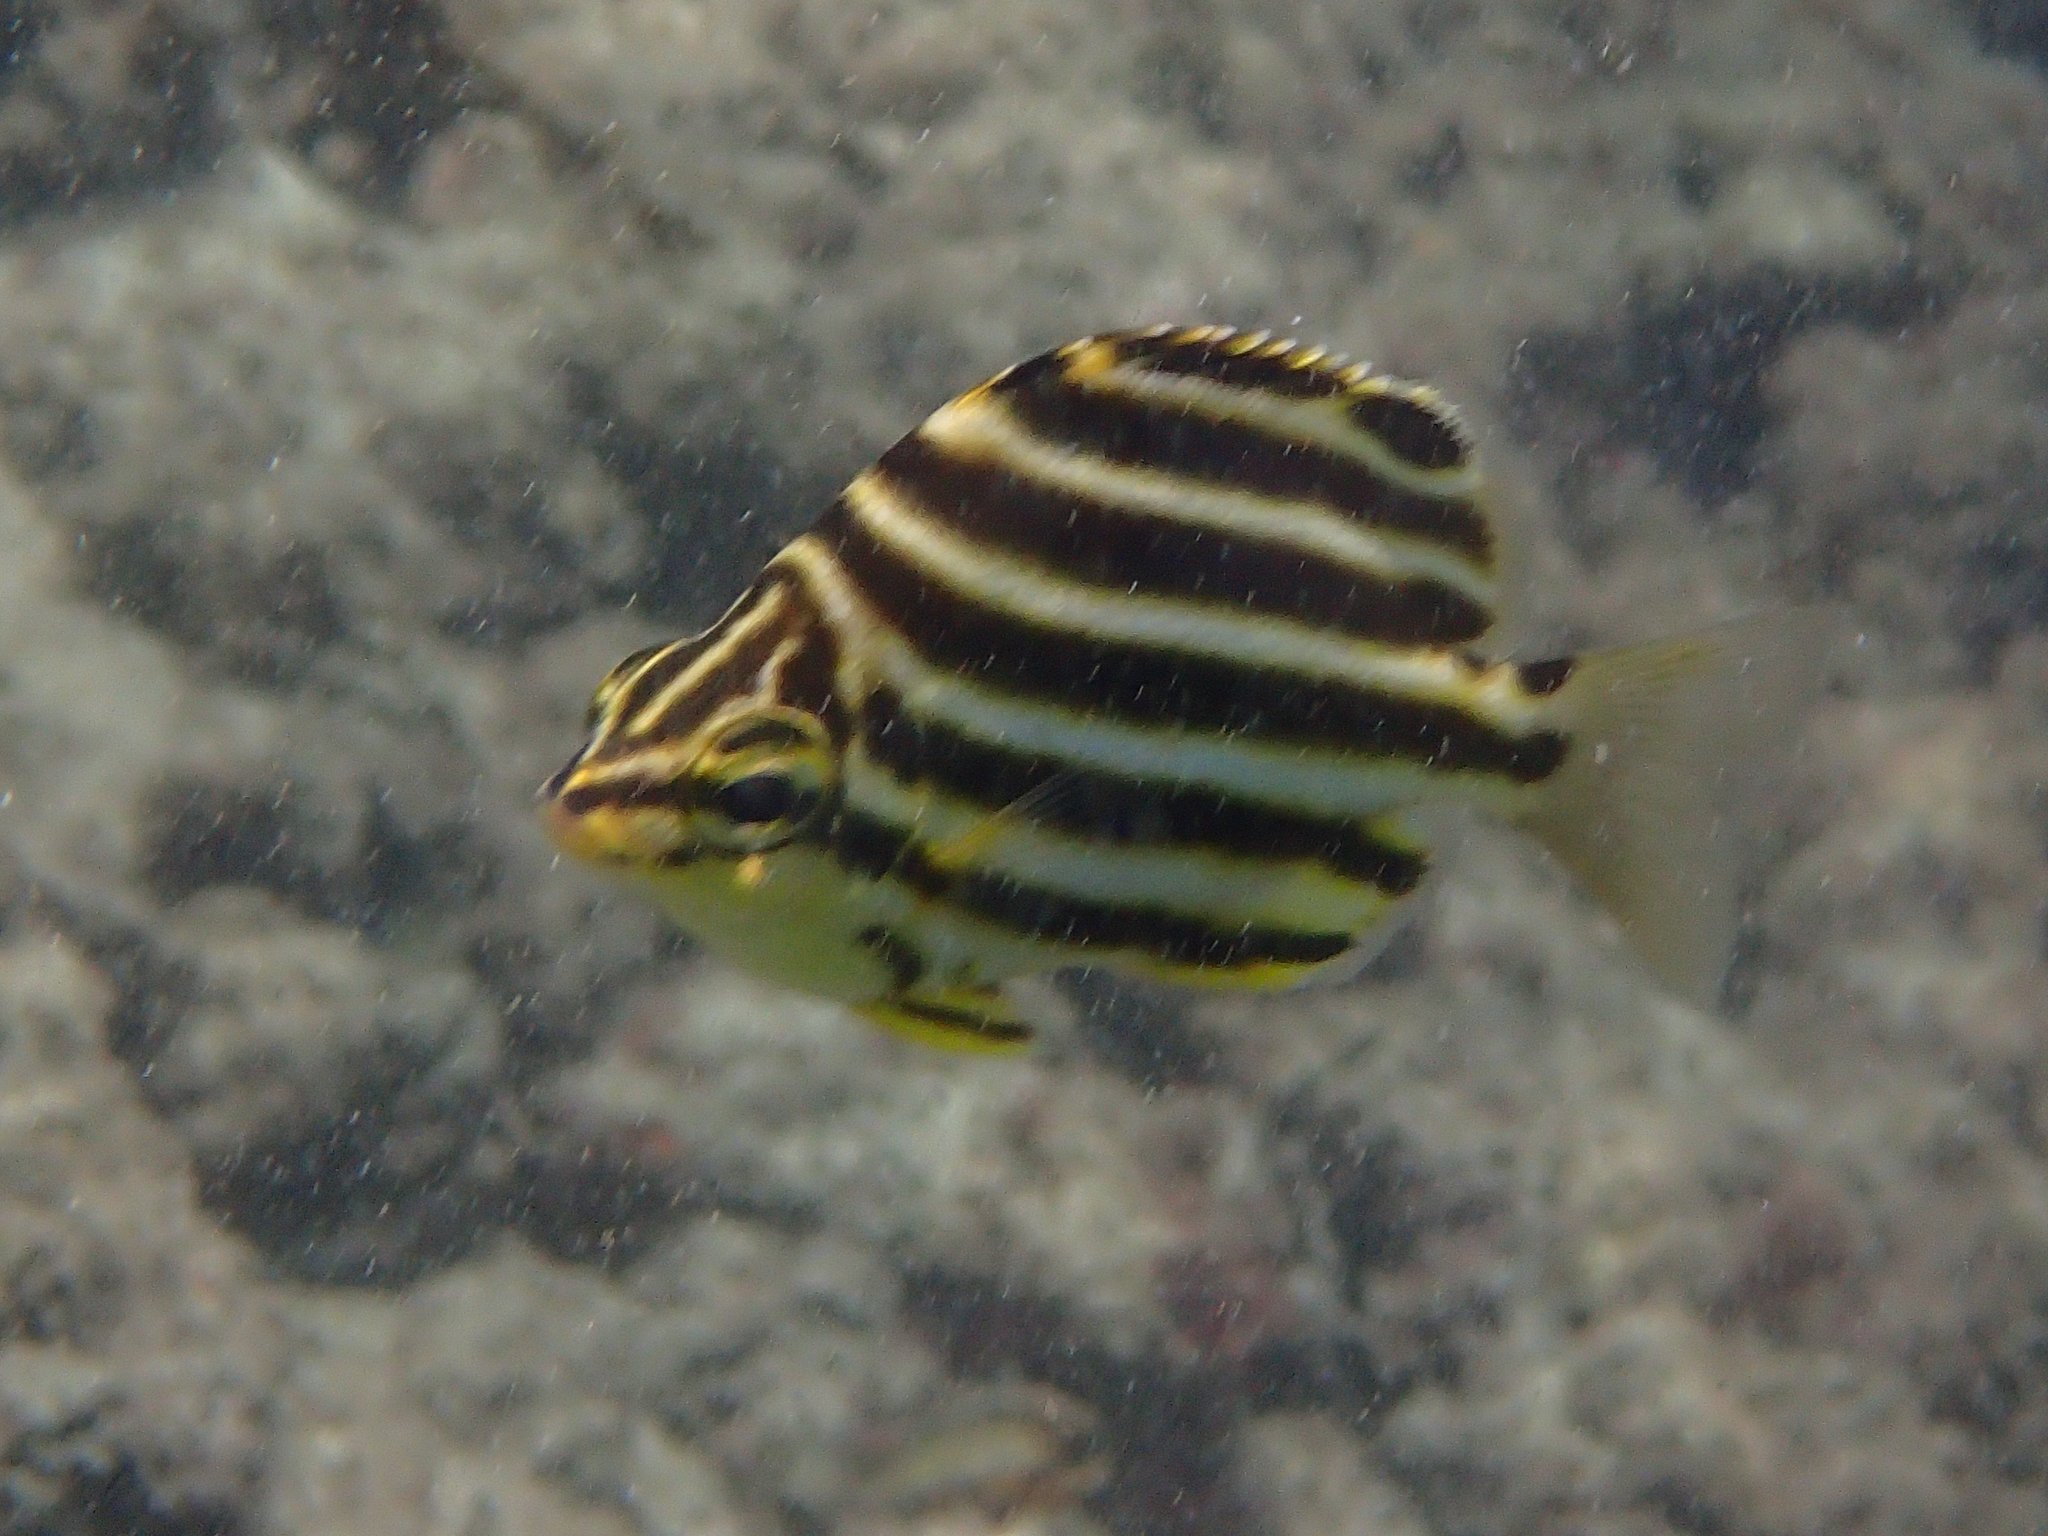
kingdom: Animalia
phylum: Chordata
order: Perciformes
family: Kyphosidae
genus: Microcanthus
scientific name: Microcanthus joyceae
